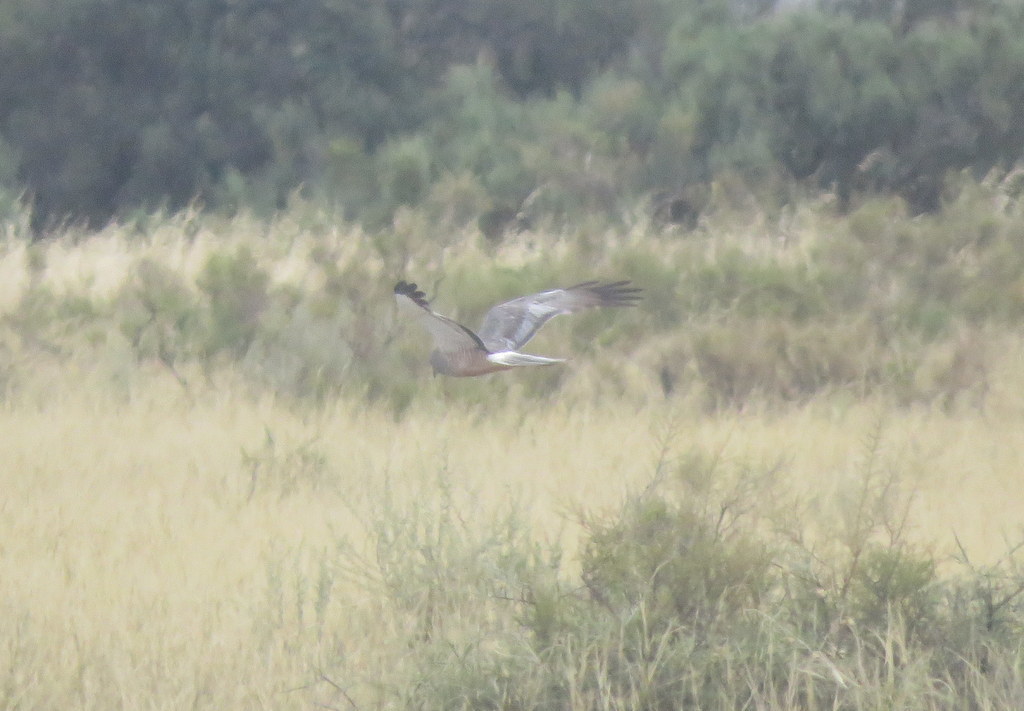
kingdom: Animalia
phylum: Chordata
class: Aves
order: Accipitriformes
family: Accipitridae
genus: Circus
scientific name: Circus cinereus
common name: Cinereous harrier
